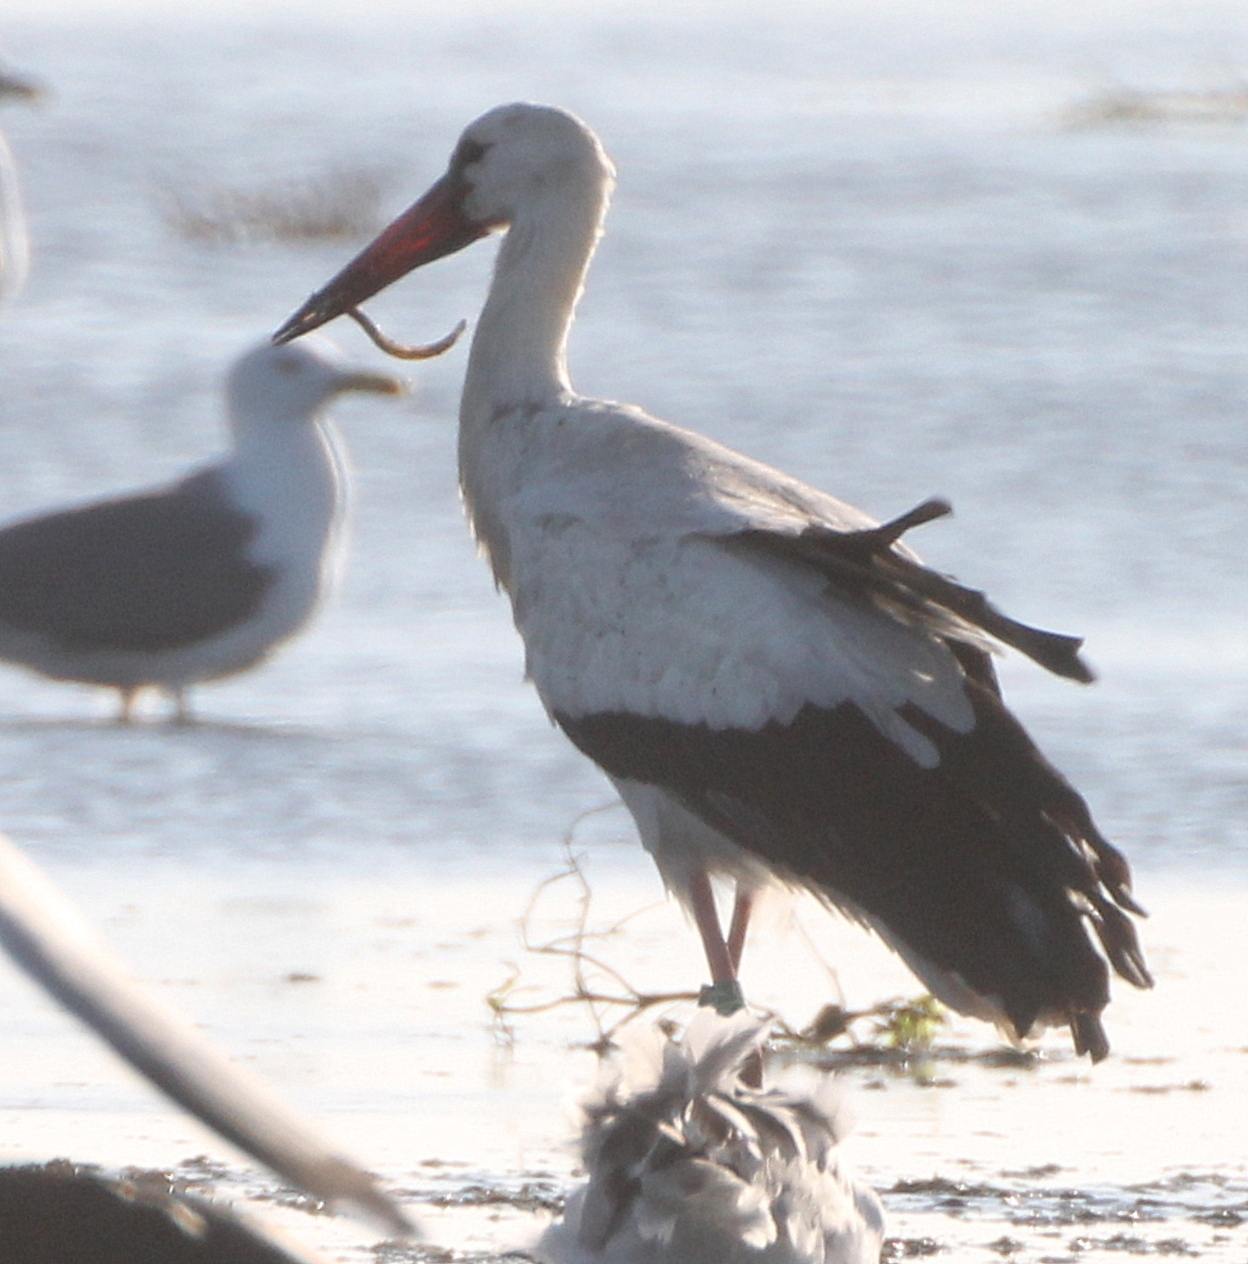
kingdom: Animalia
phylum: Chordata
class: Aves
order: Ciconiiformes
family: Ciconiidae
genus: Ciconia
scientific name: Ciconia ciconia
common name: White stork
